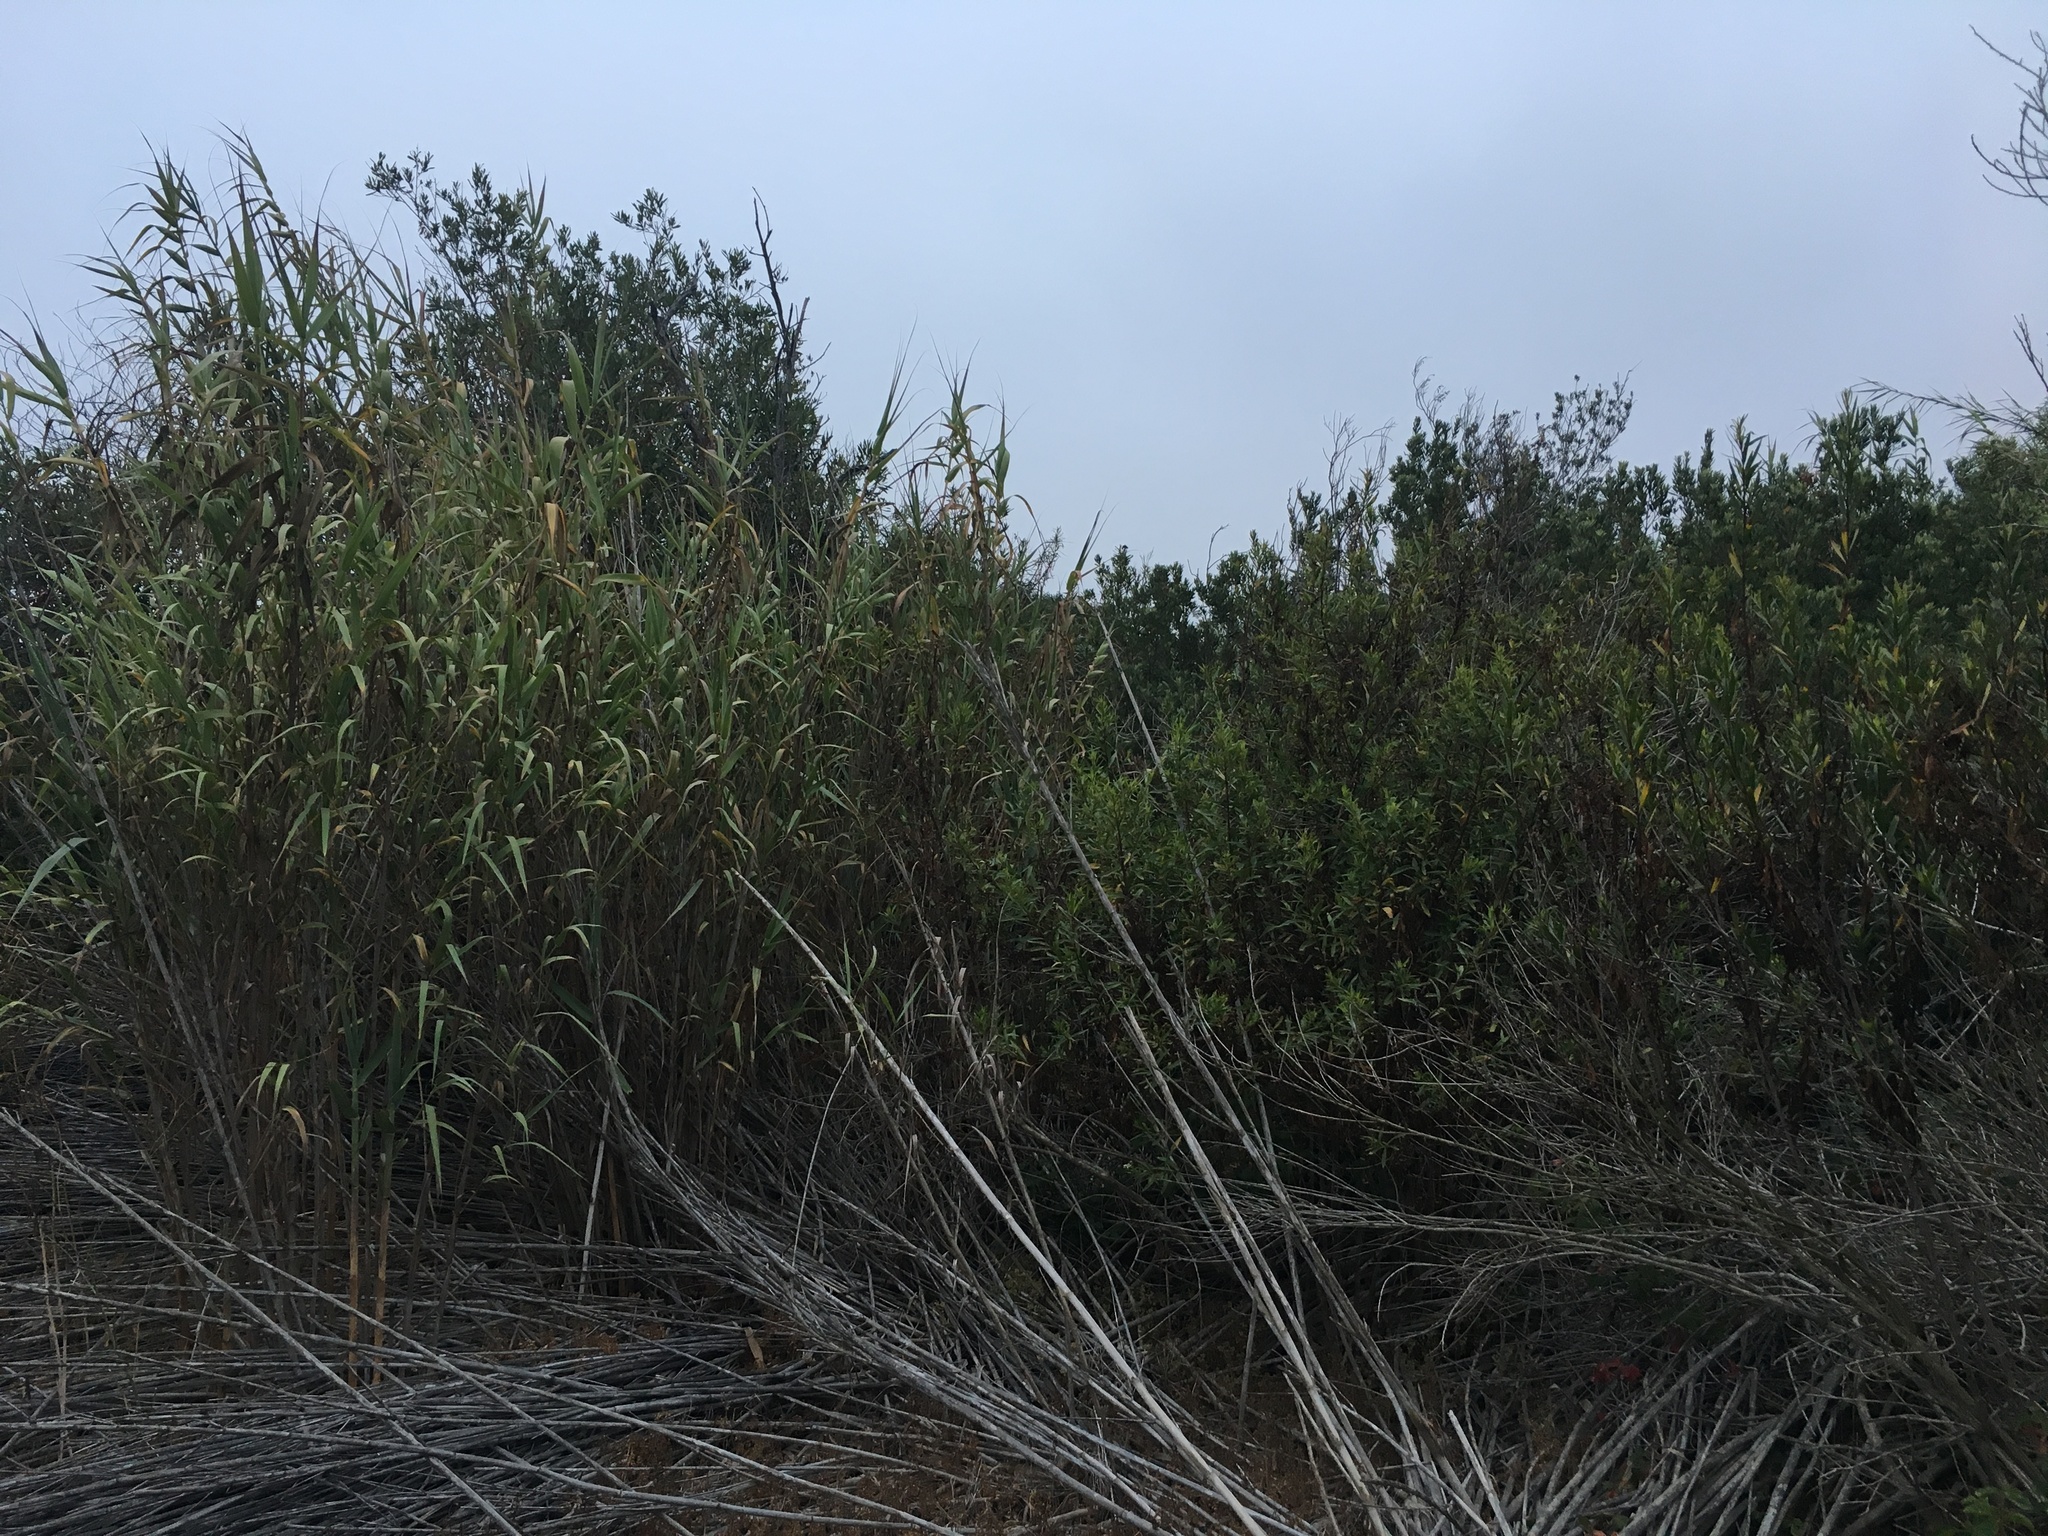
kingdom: Plantae
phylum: Tracheophyta
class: Liliopsida
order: Poales
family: Poaceae
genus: Arundo
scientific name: Arundo donax
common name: Giant reed
